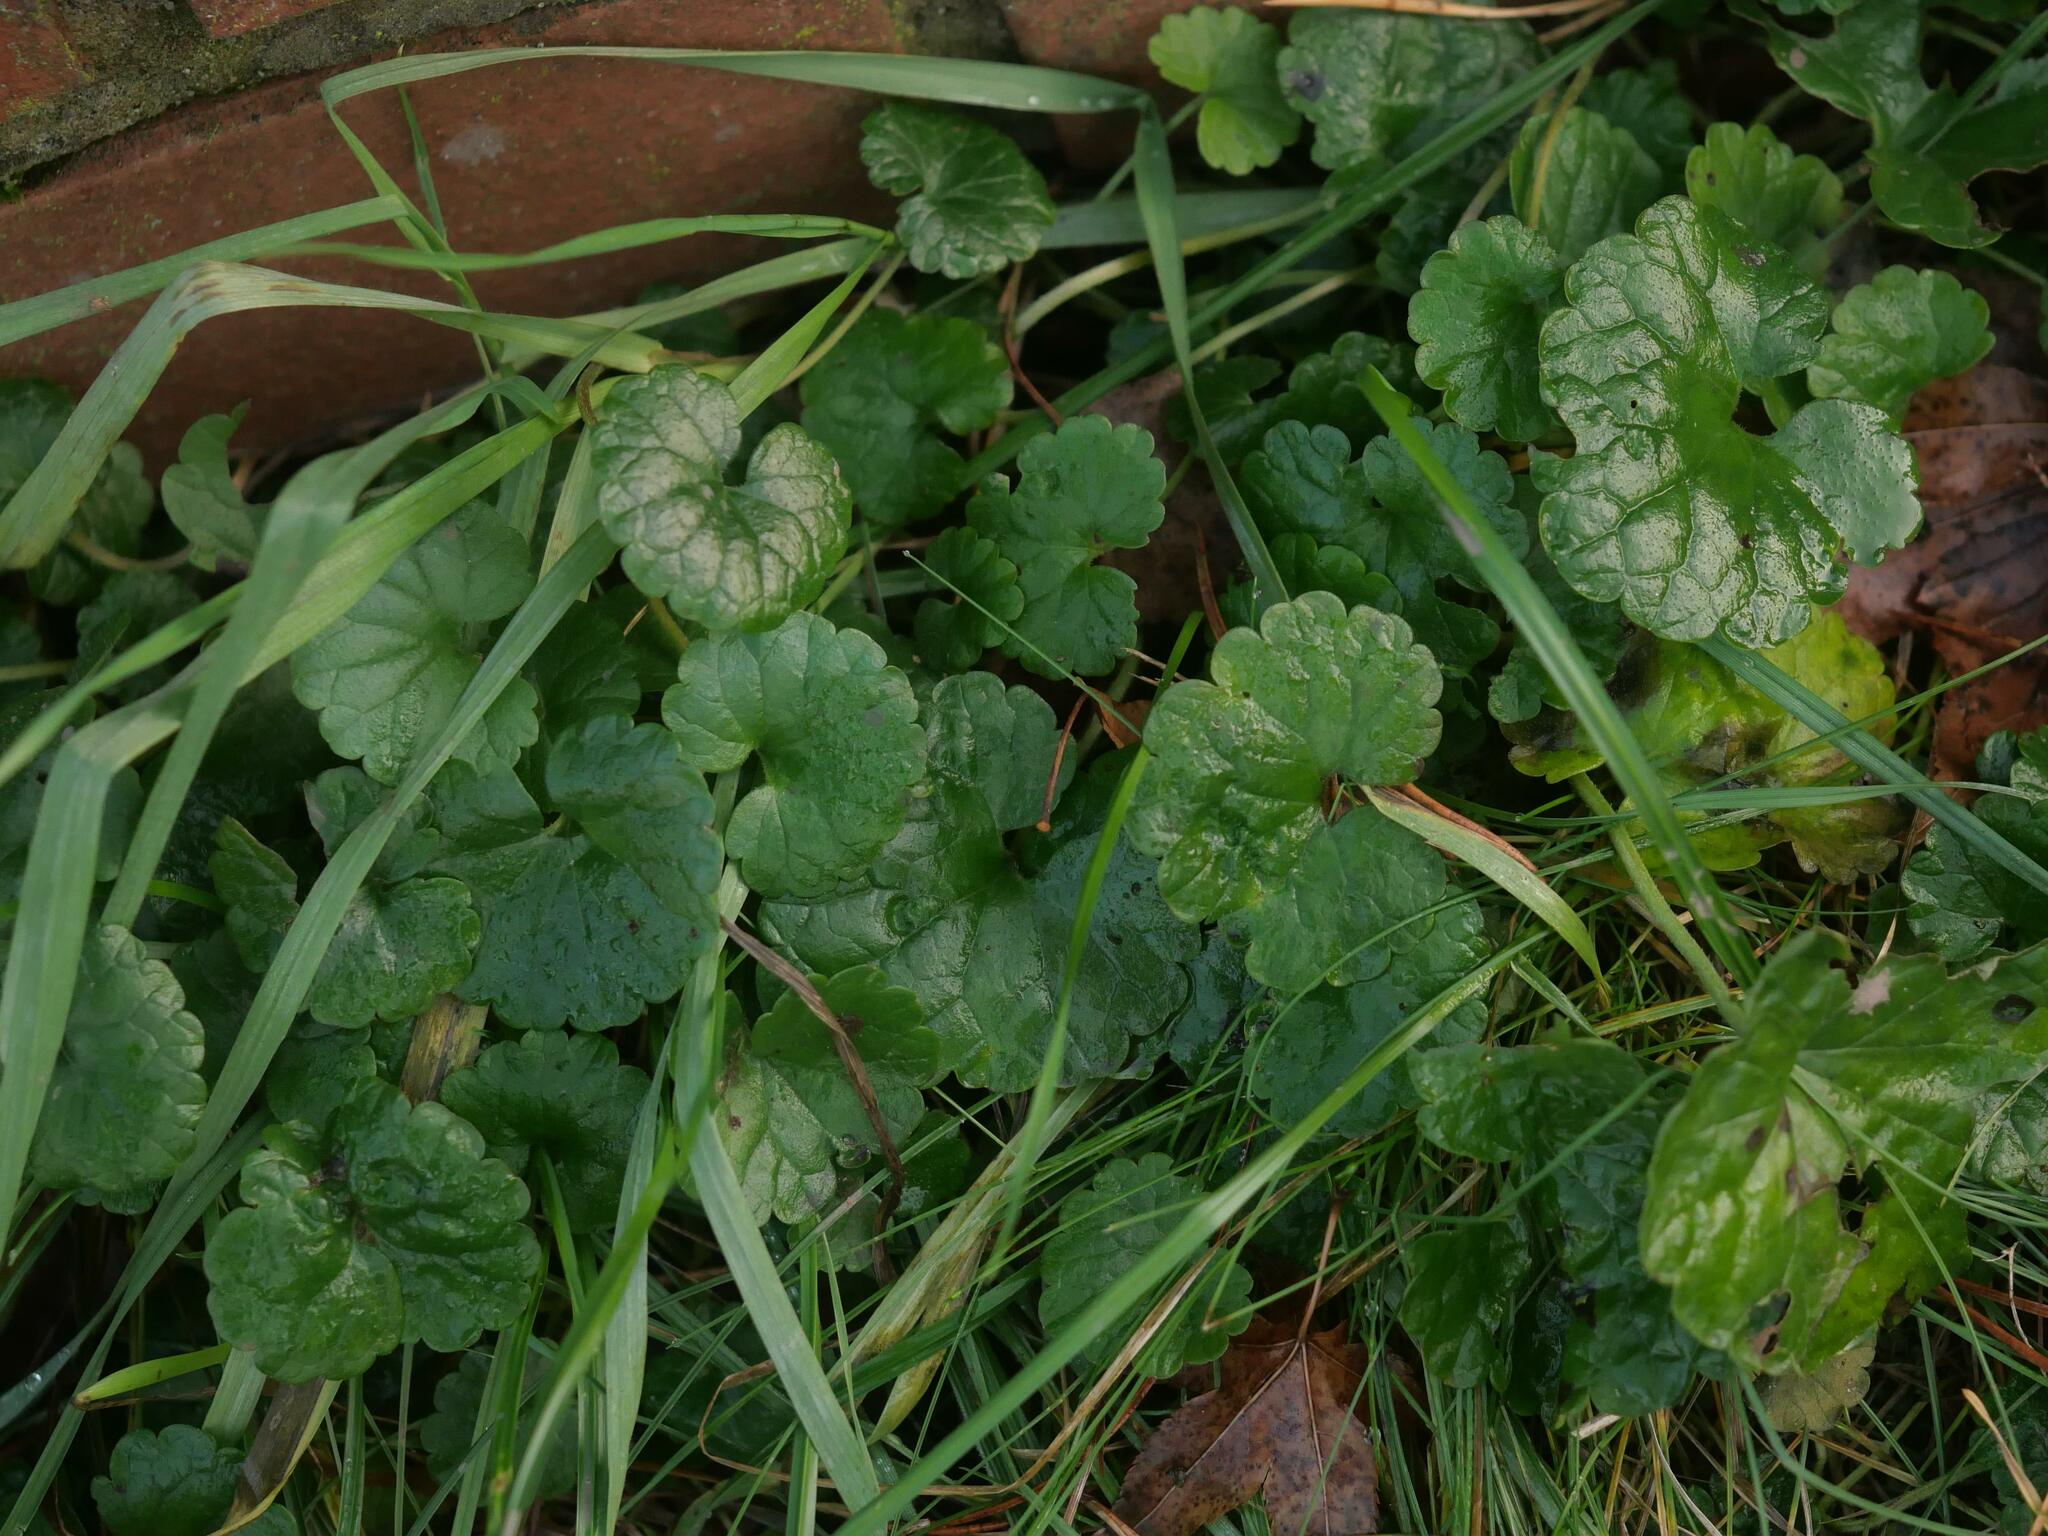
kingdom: Plantae
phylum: Tracheophyta
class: Magnoliopsida
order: Lamiales
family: Lamiaceae
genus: Glechoma
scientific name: Glechoma hederacea
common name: Ground ivy
